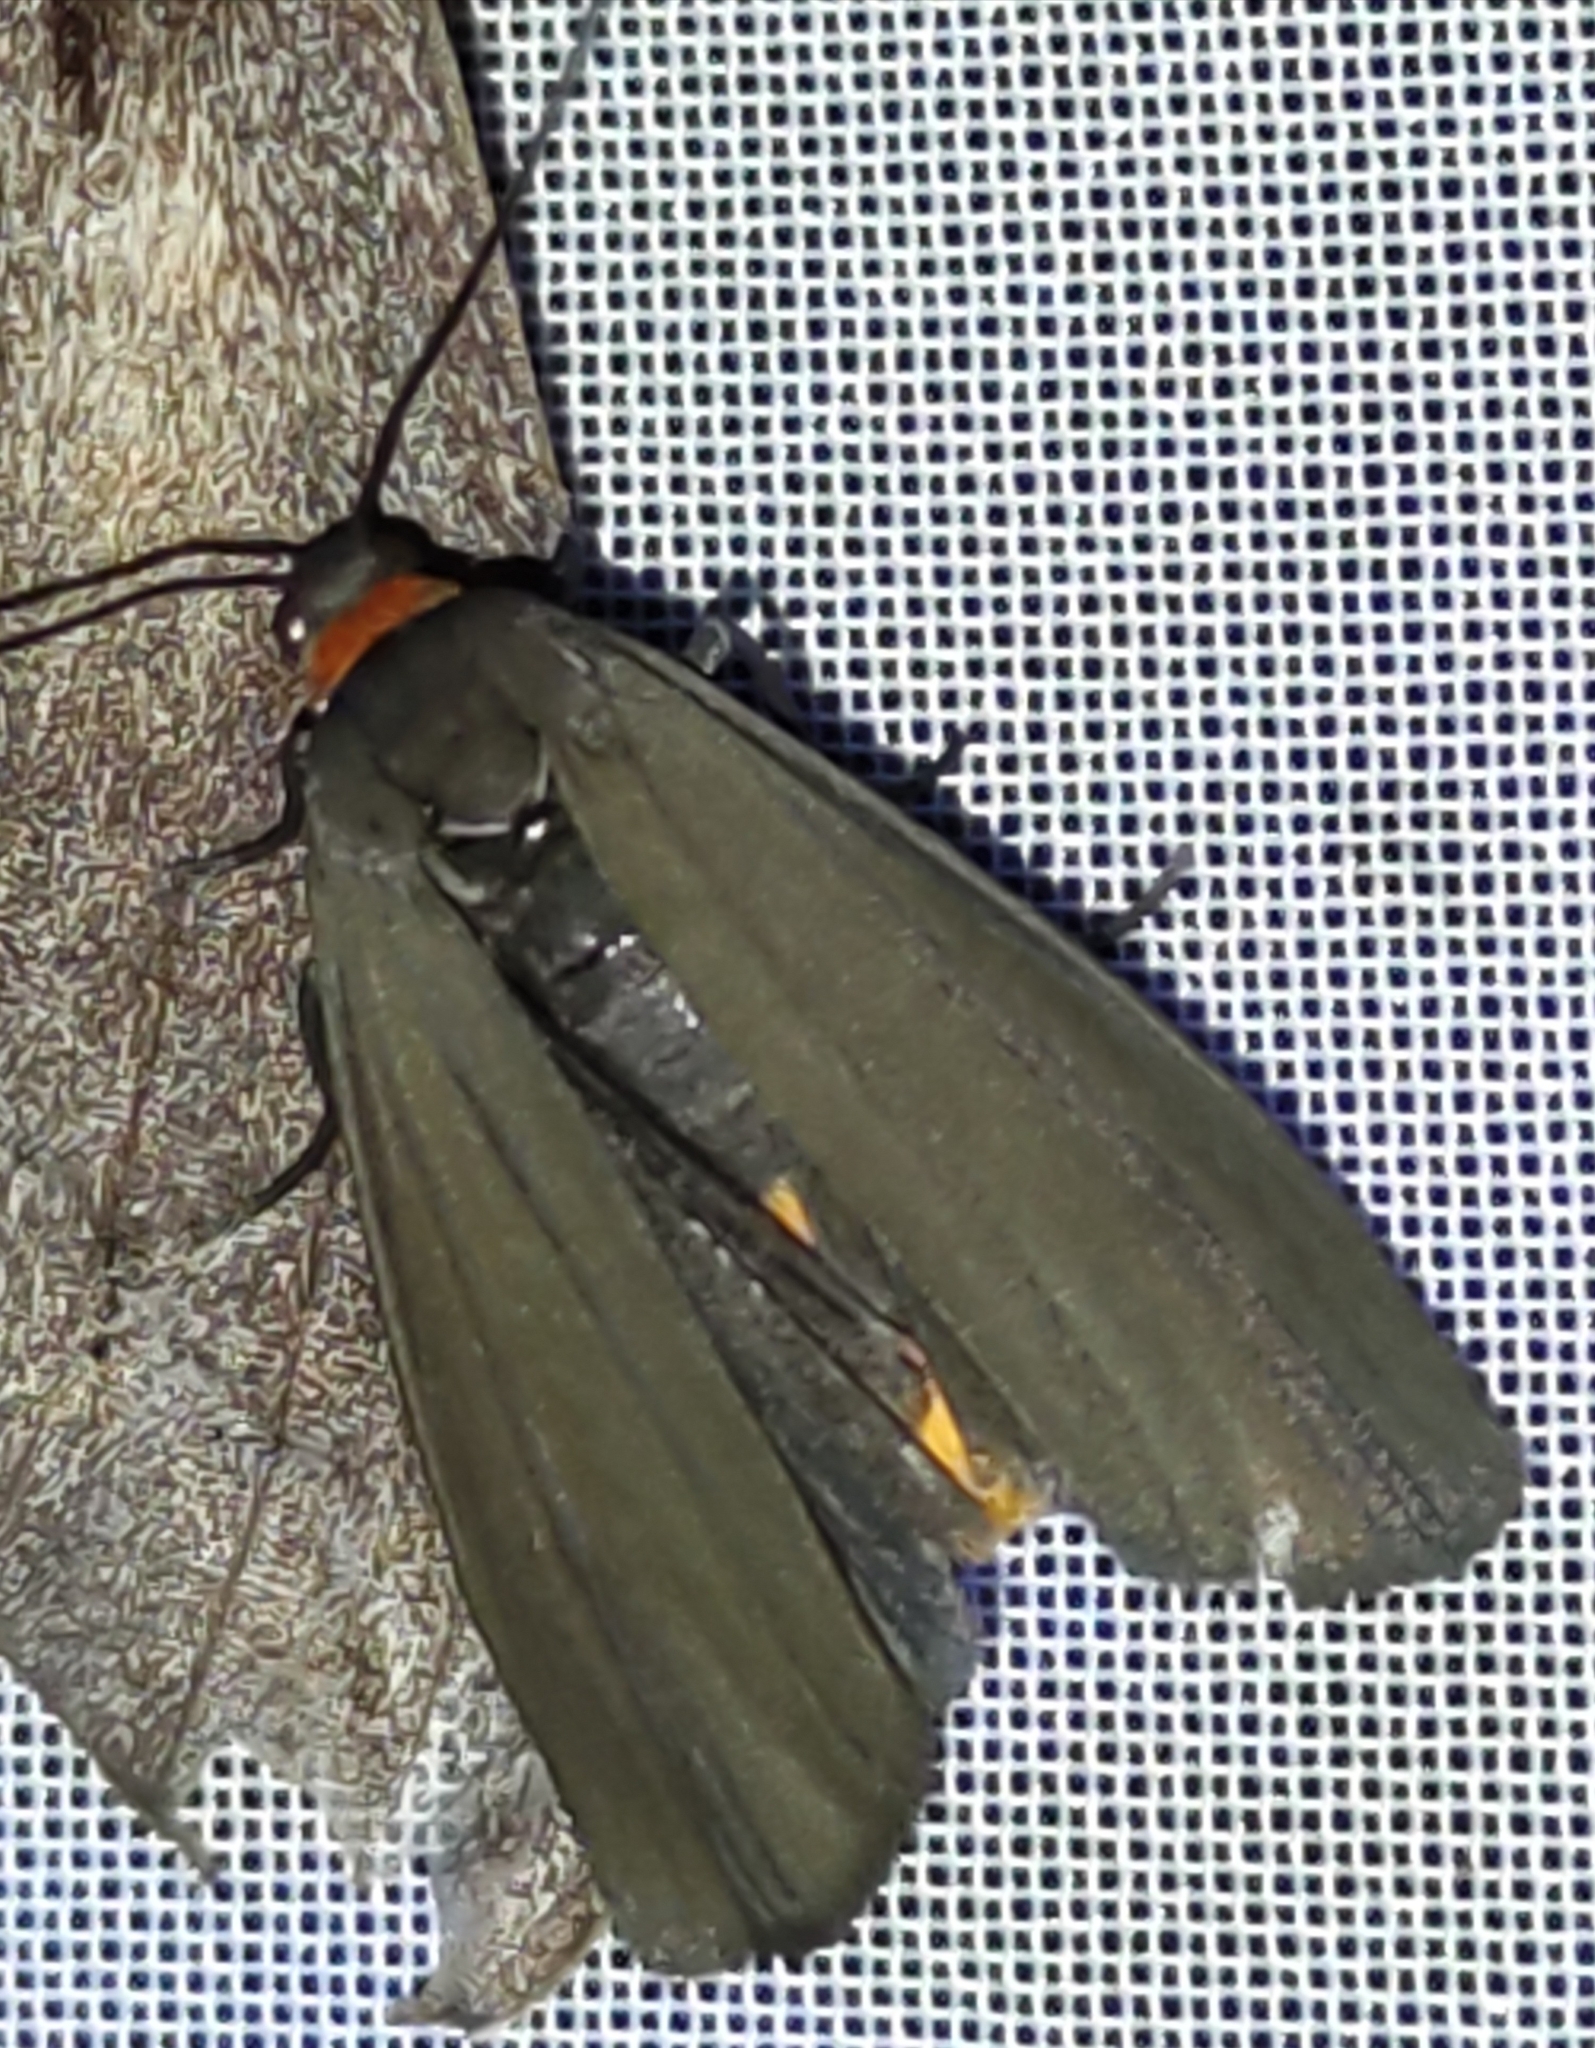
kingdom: Animalia
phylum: Arthropoda
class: Insecta
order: Lepidoptera
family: Erebidae
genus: Atolmis
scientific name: Atolmis rubricollis
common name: Red-necked footman
